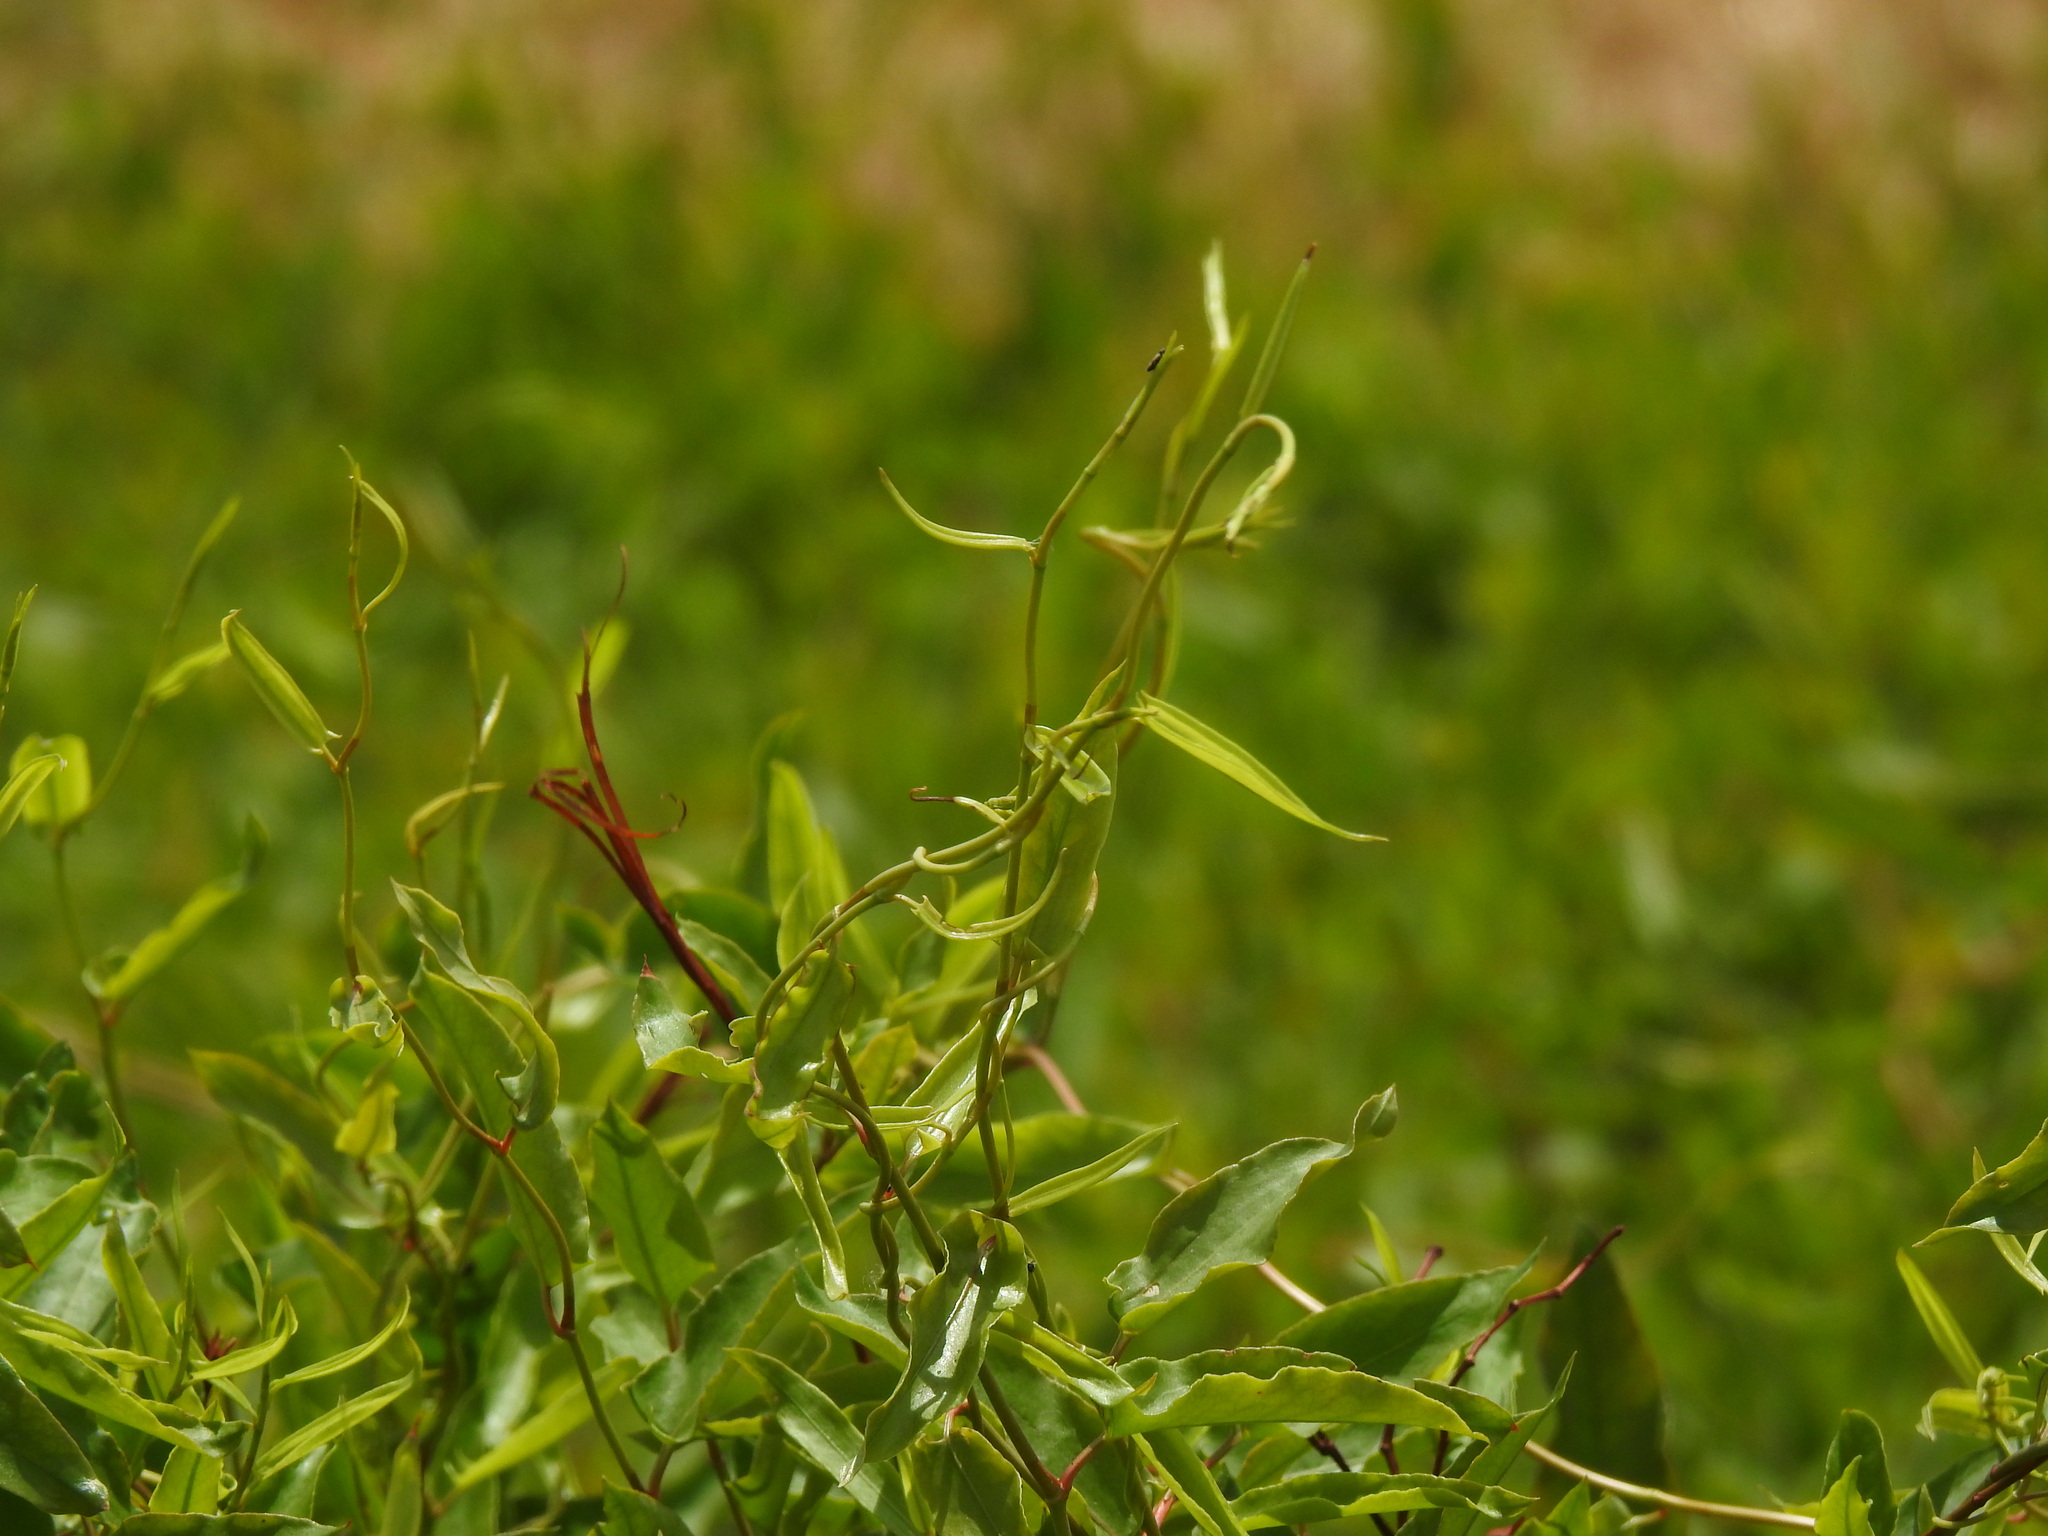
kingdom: Plantae
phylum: Tracheophyta
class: Magnoliopsida
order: Caryophyllales
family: Polygonaceae
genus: Muehlenbeckia
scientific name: Muehlenbeckia sagittifolia
